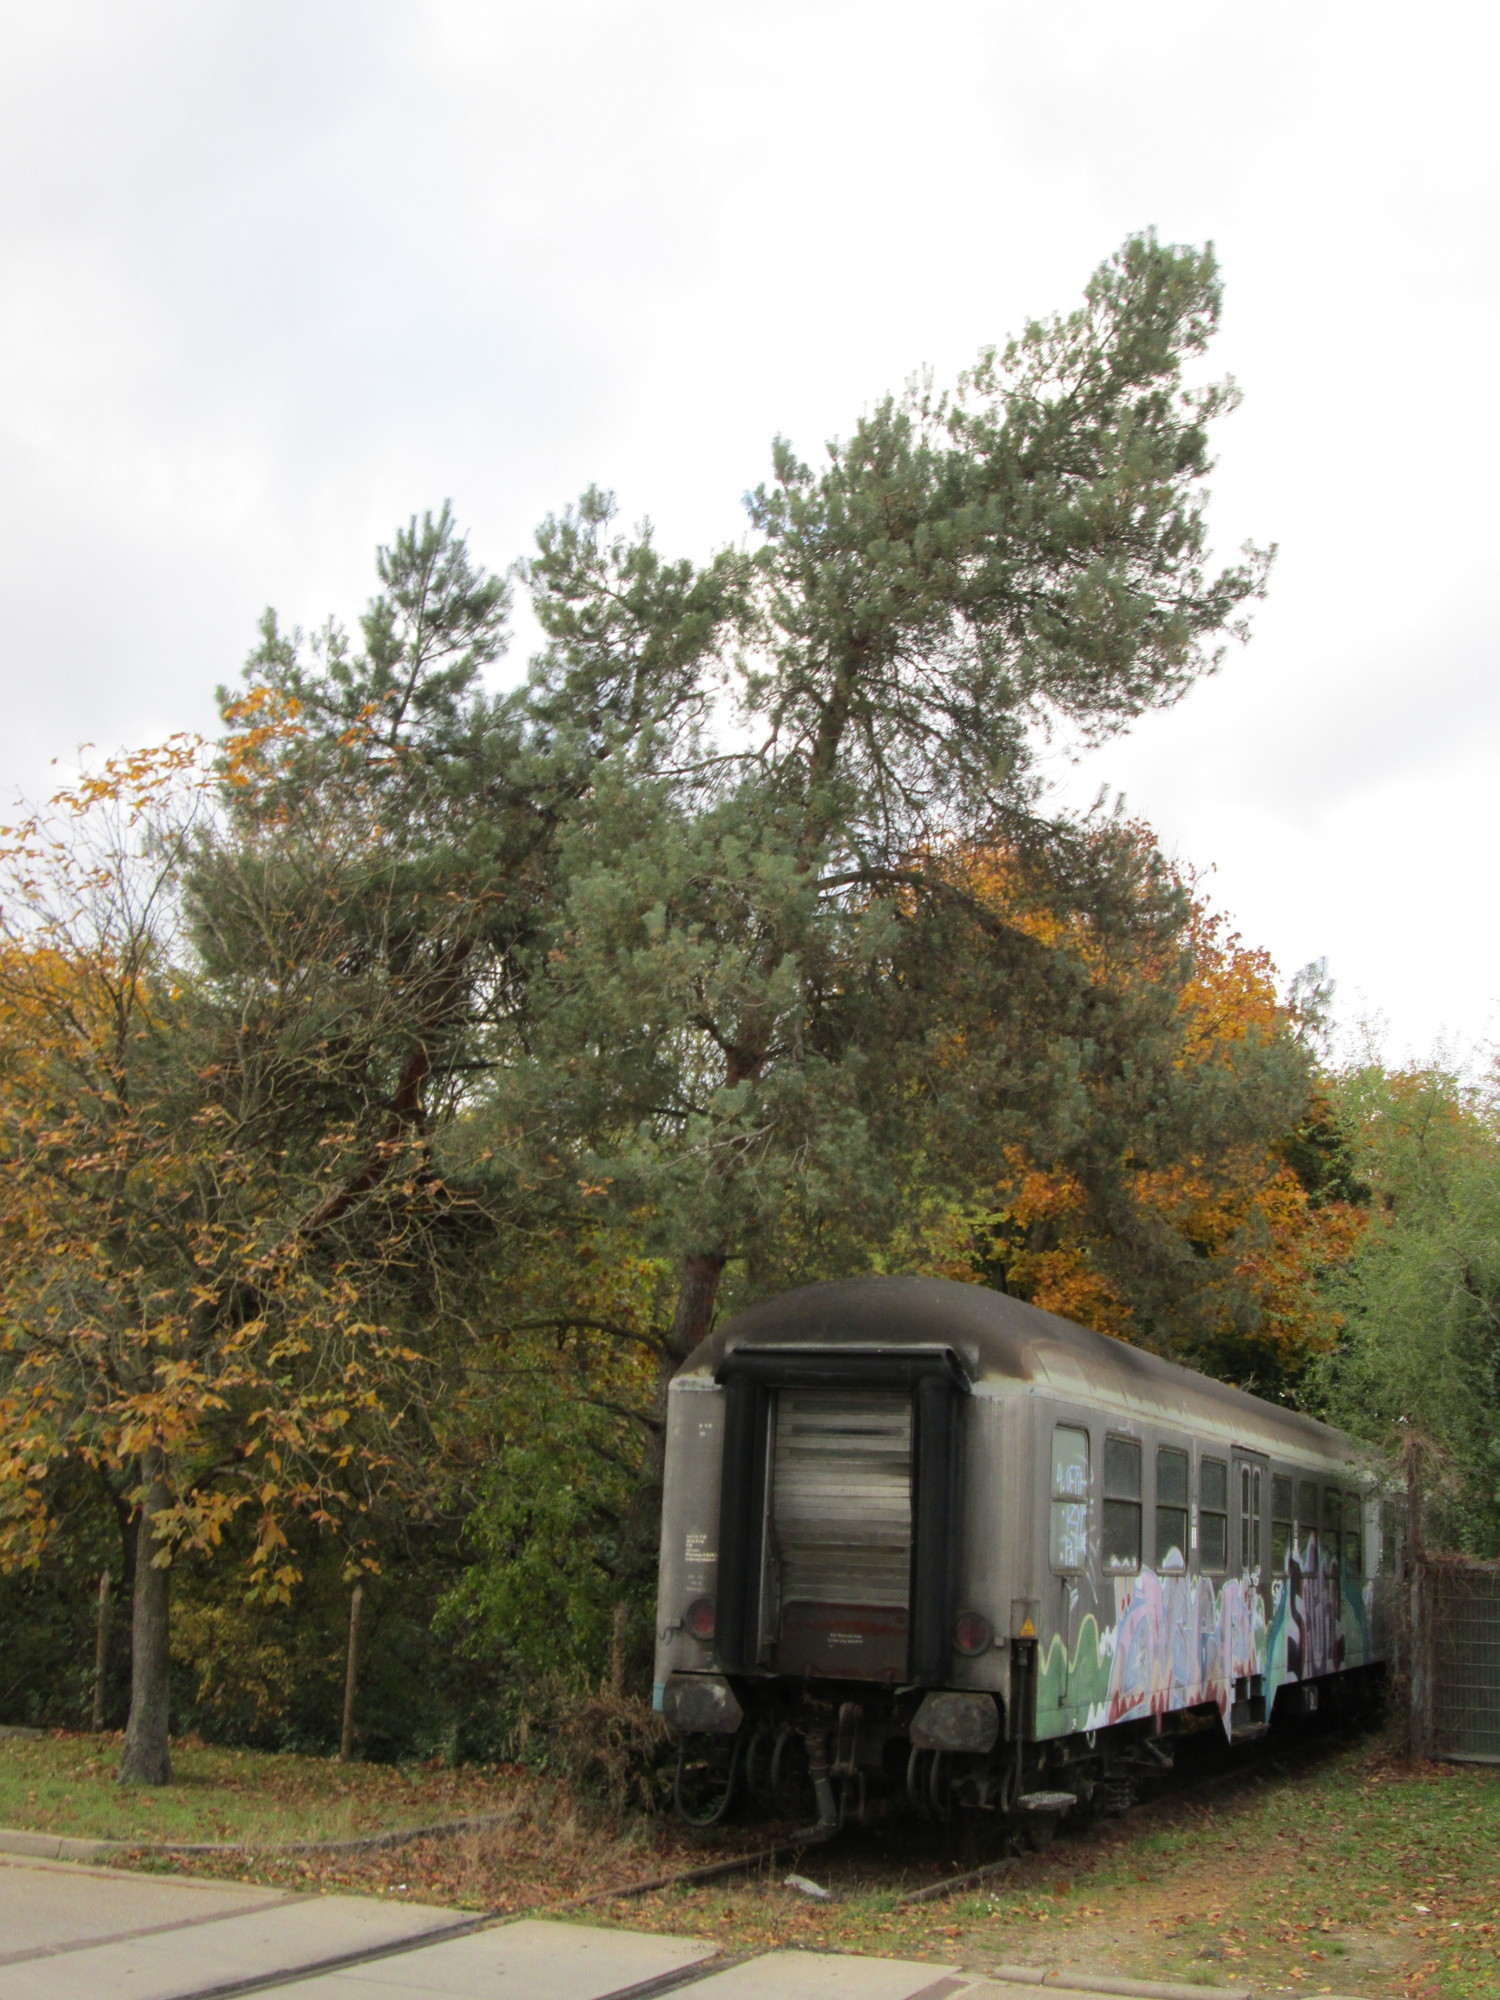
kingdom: Plantae
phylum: Tracheophyta
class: Pinopsida
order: Pinales
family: Pinaceae
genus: Pinus
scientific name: Pinus sylvestris
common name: Scots pine
